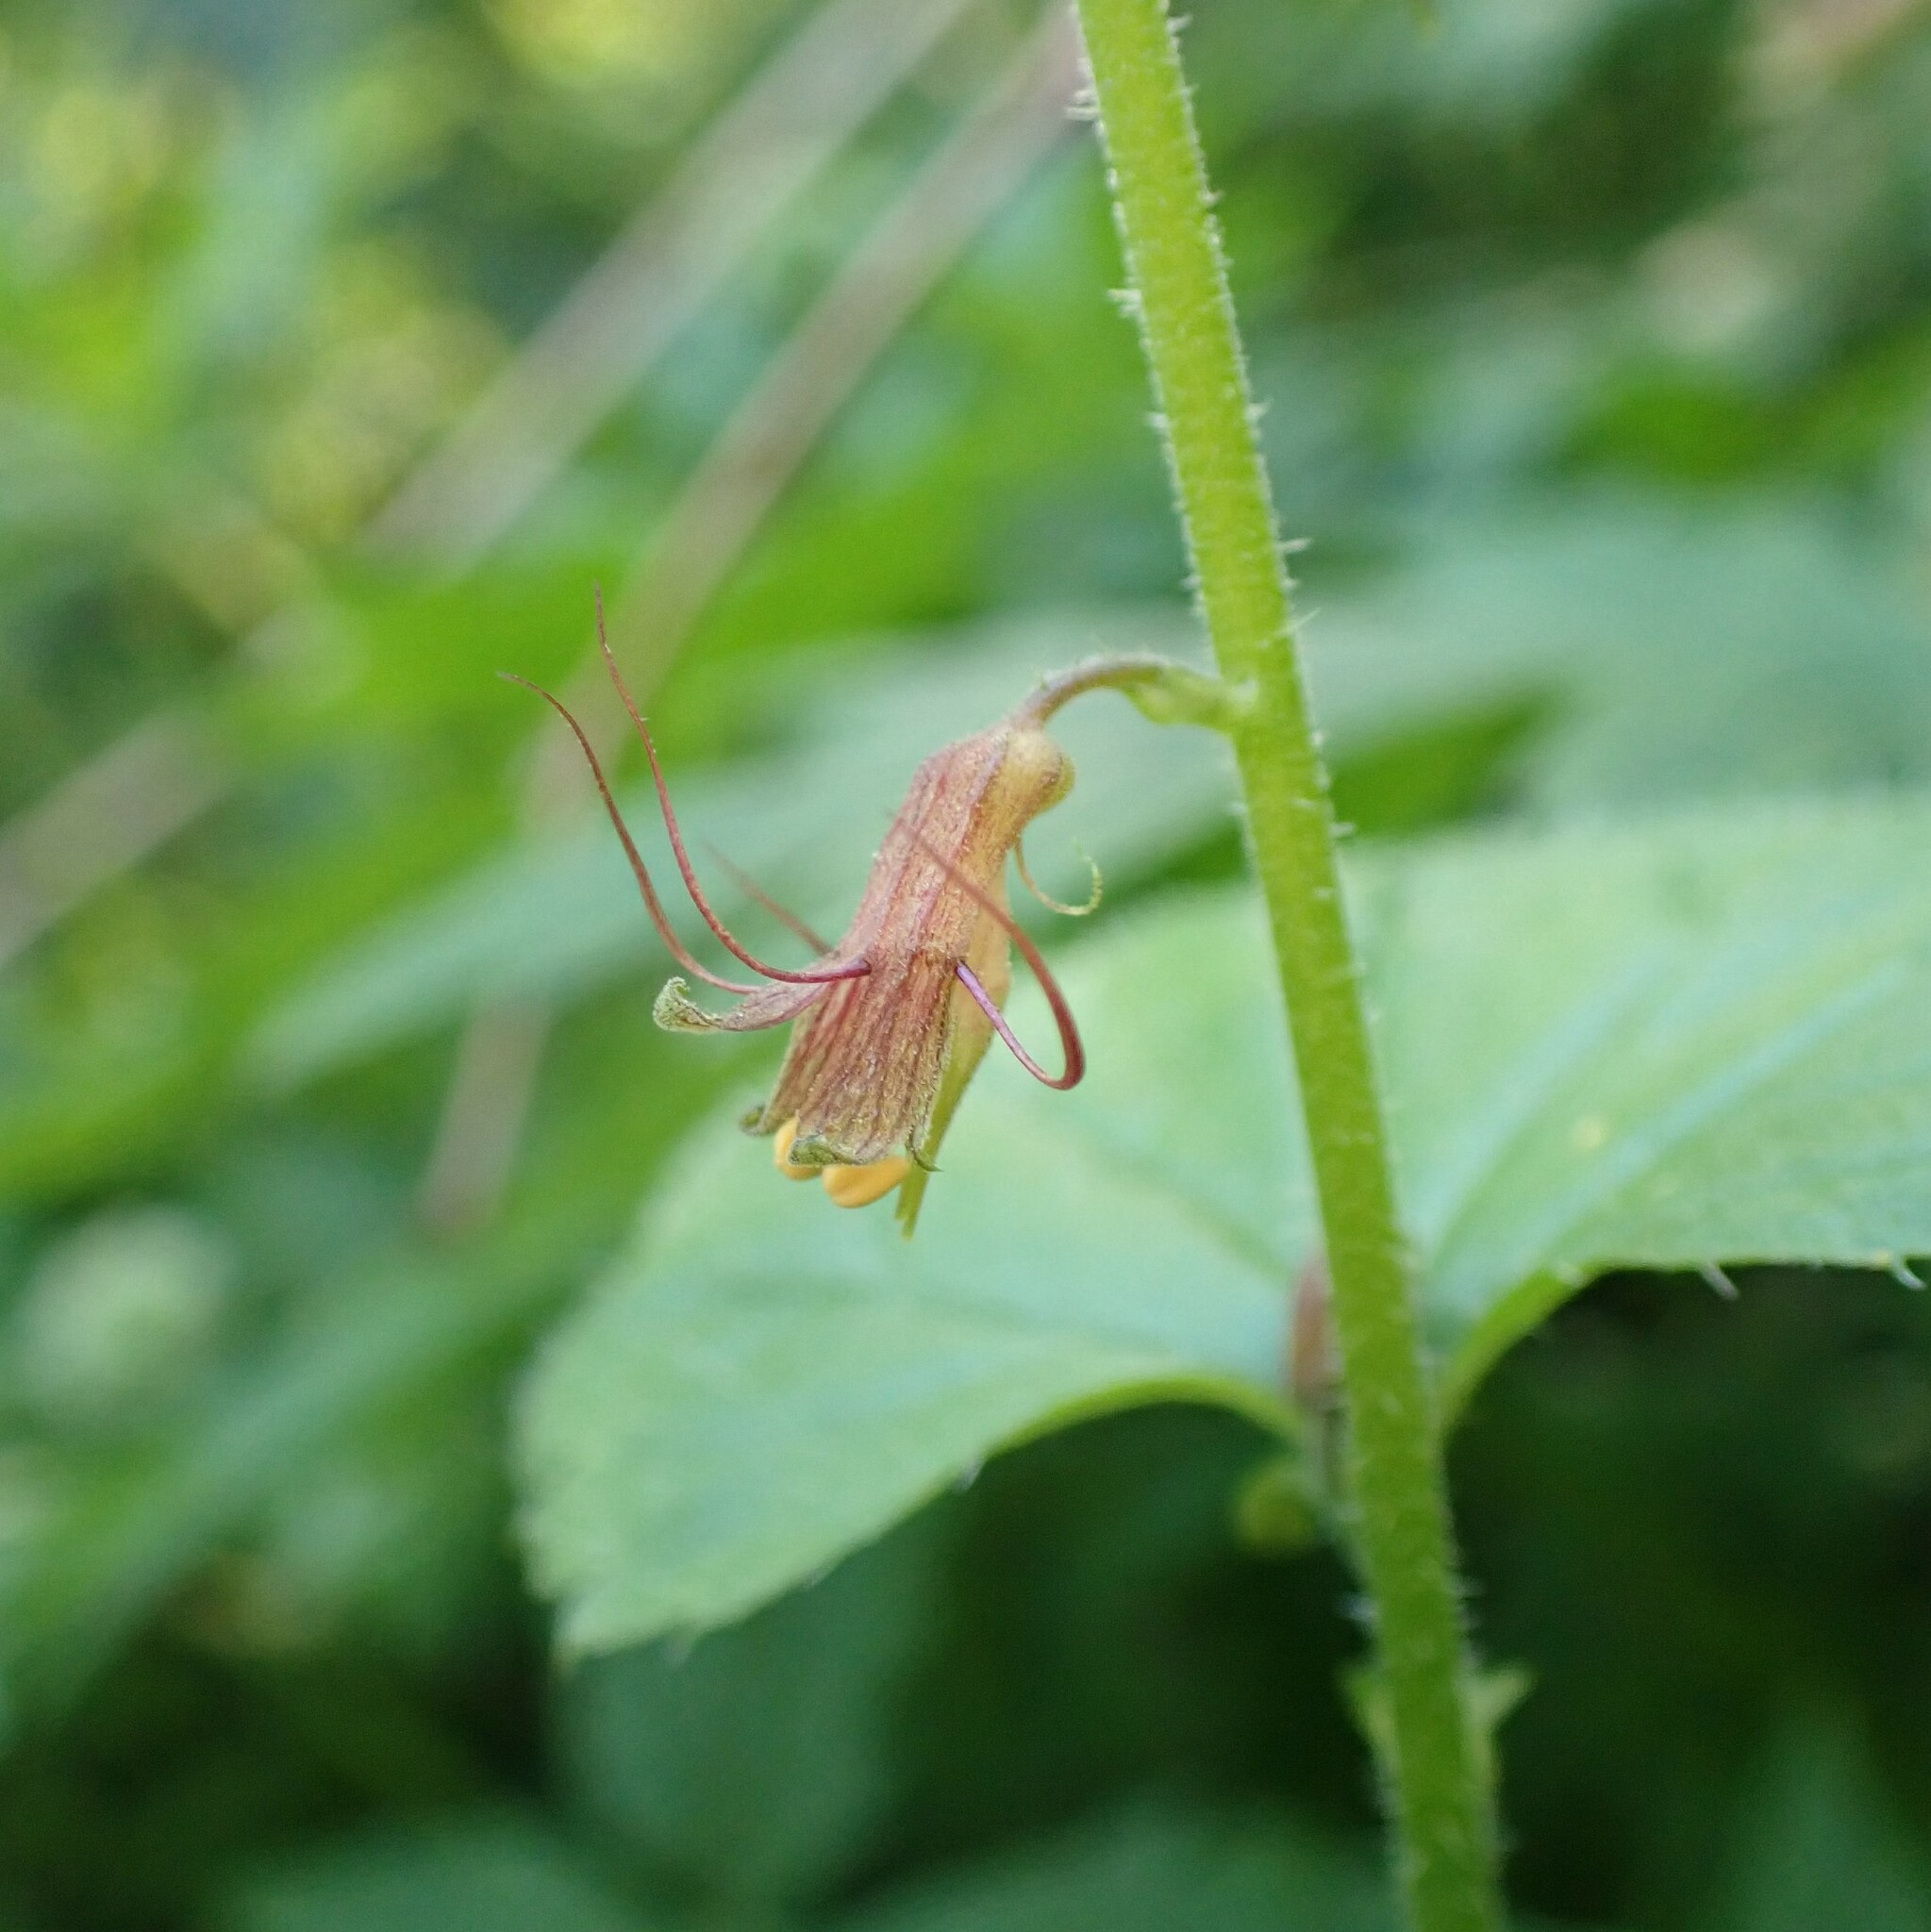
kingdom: Plantae
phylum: Tracheophyta
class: Magnoliopsida
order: Saxifragales
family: Saxifragaceae
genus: Tolmiea
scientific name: Tolmiea menziesii
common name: Pick-a-back-plant
